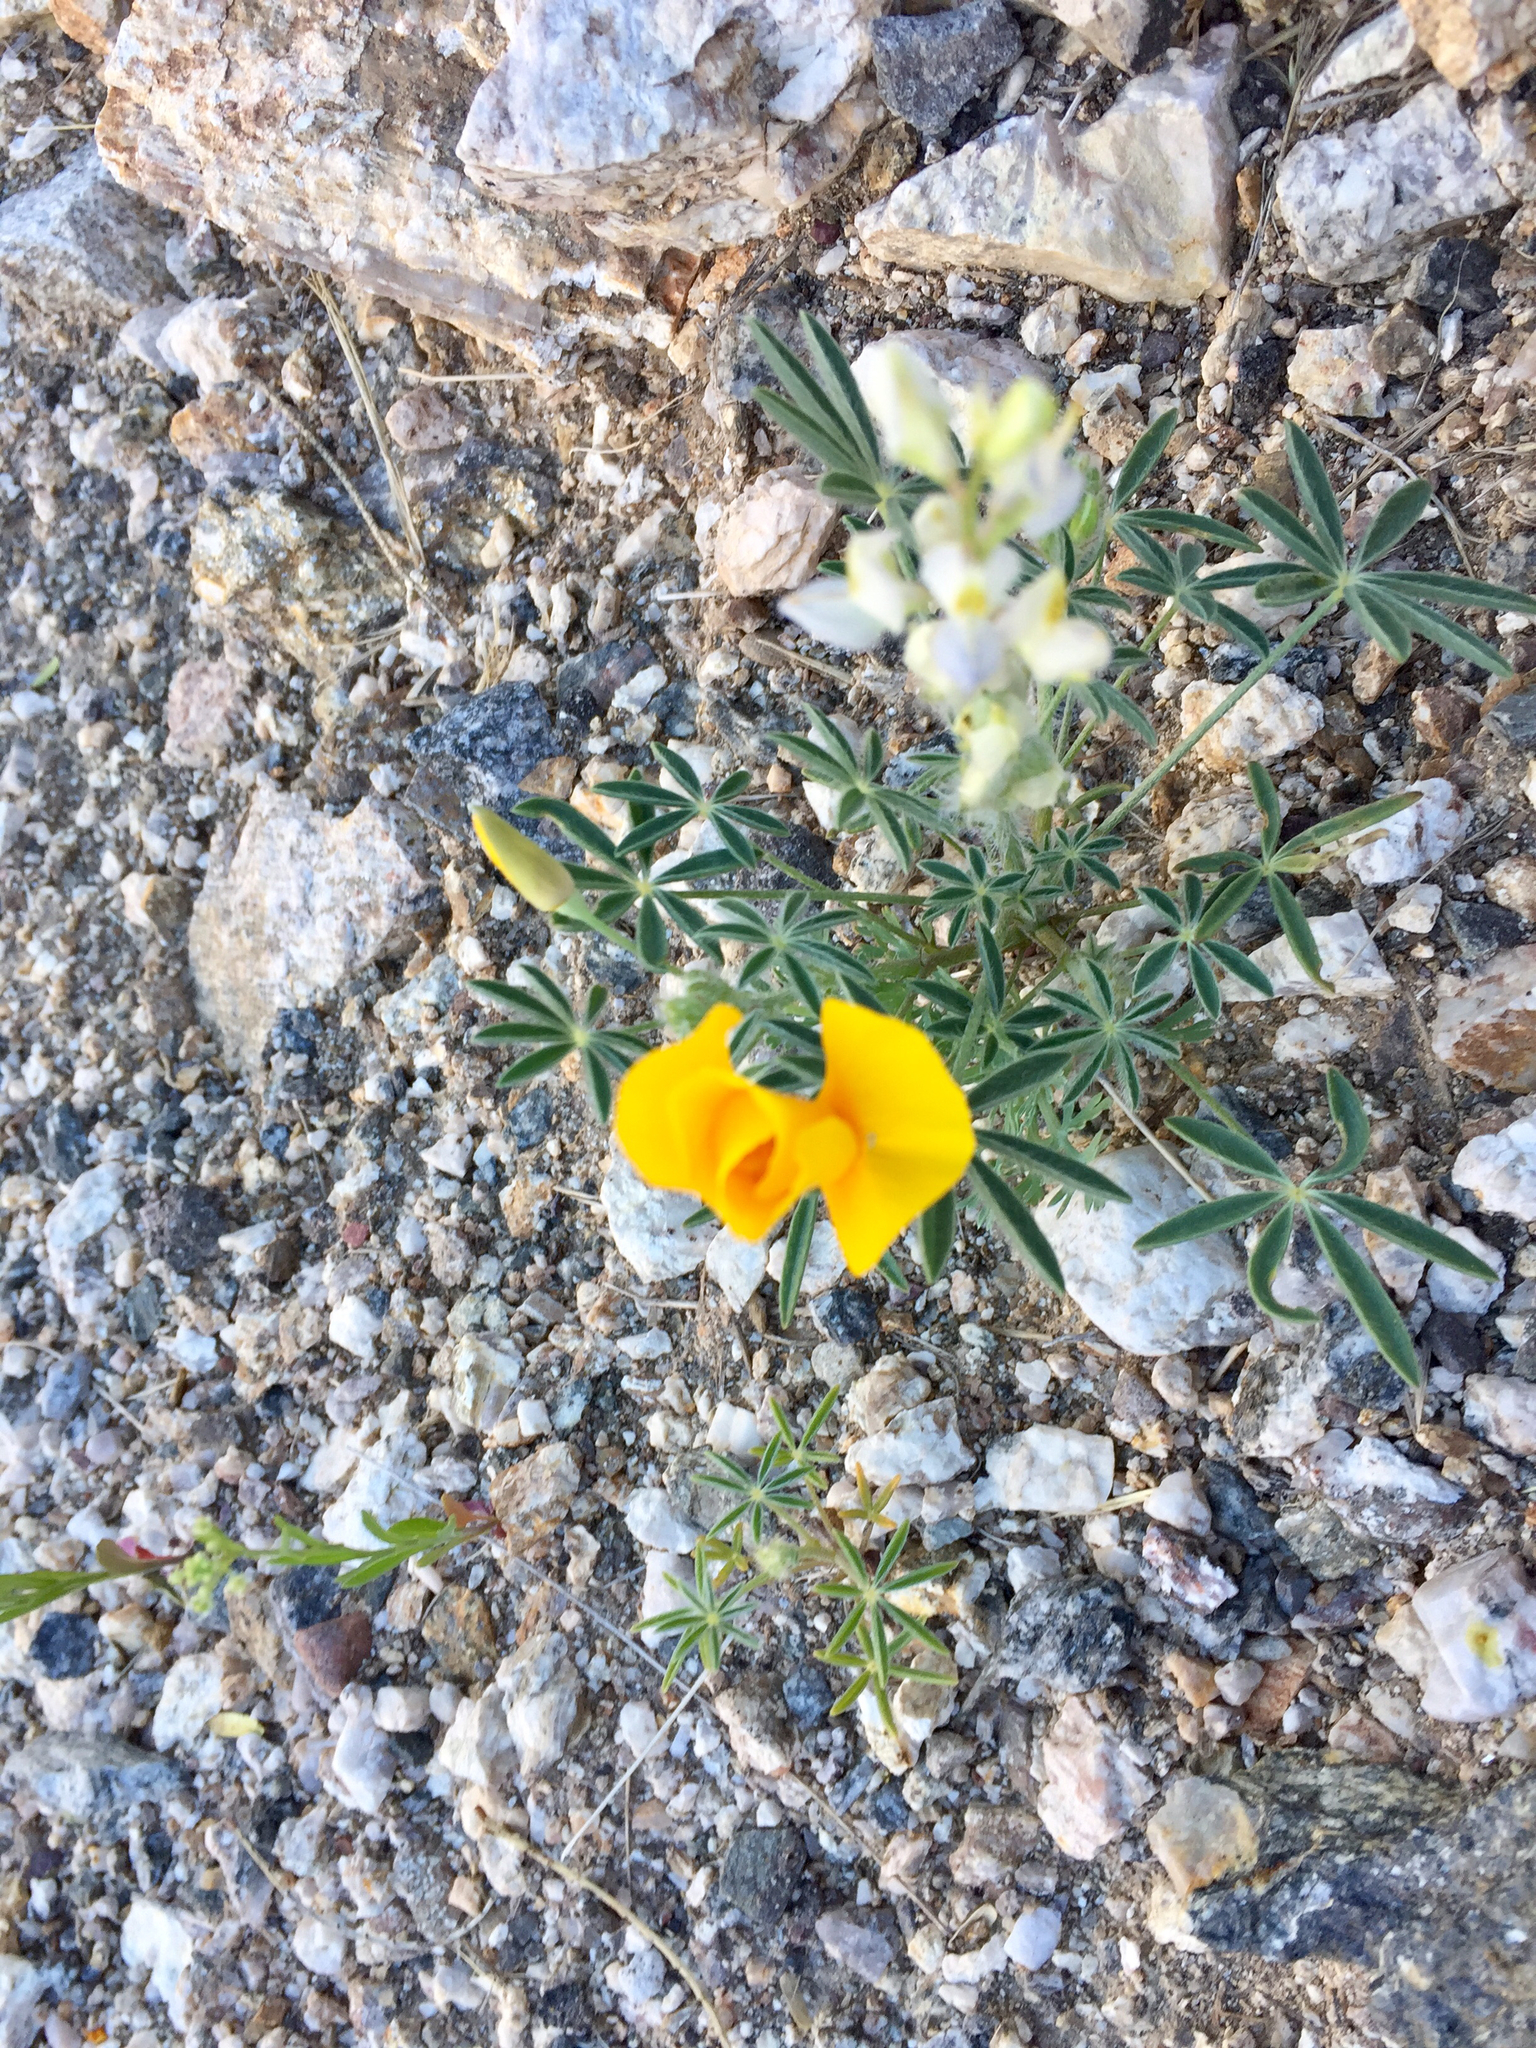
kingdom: Plantae
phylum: Tracheophyta
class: Magnoliopsida
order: Ranunculales
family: Papaveraceae
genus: Eschscholzia
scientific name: Eschscholzia californica
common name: California poppy
